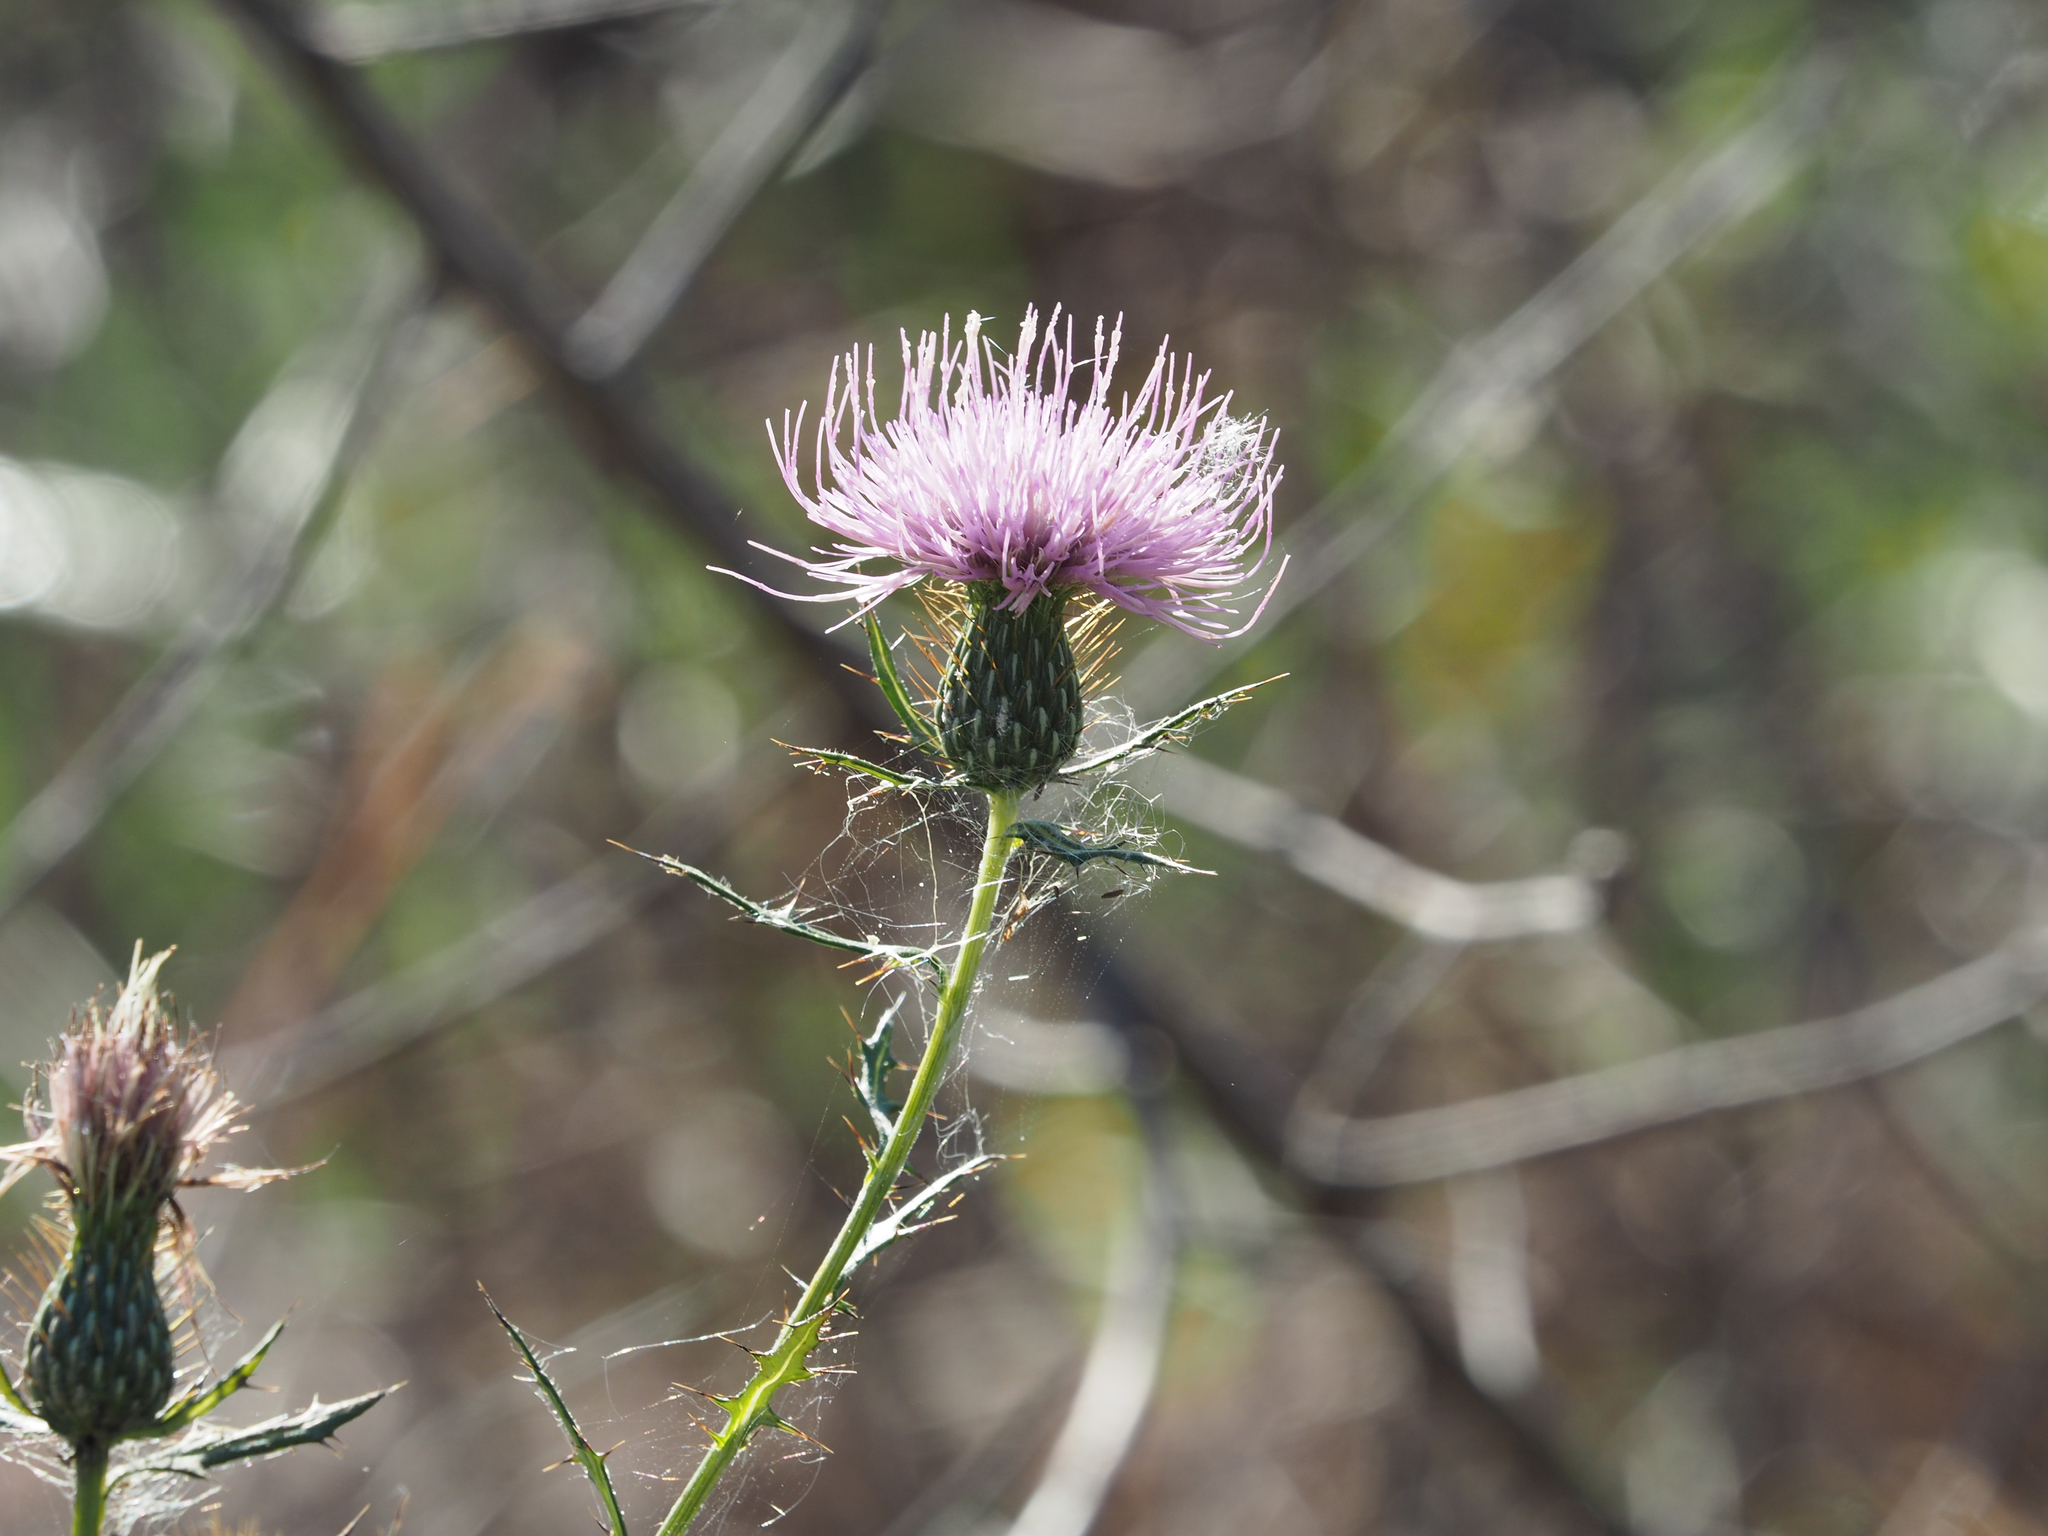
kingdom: Plantae
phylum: Tracheophyta
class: Magnoliopsida
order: Asterales
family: Asteraceae
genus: Cirsium
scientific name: Cirsium discolor
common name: Field thistle
